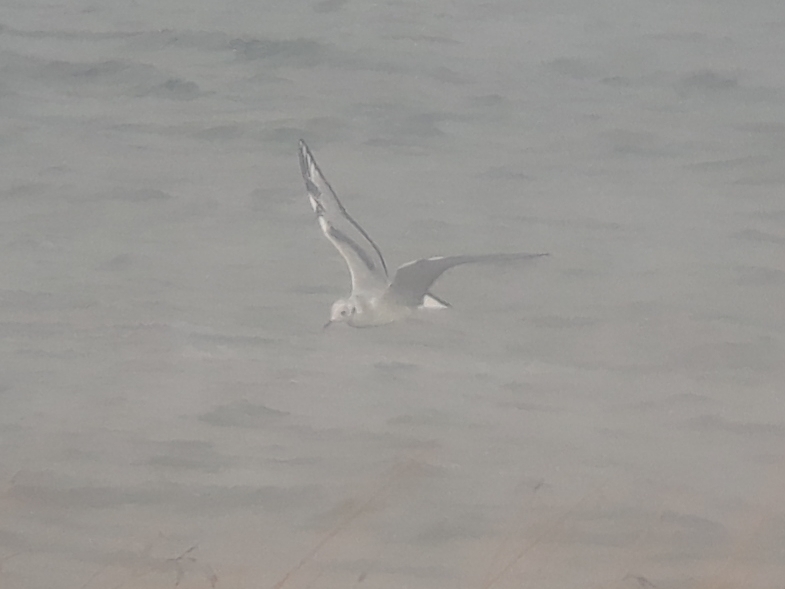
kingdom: Animalia
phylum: Chordata
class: Aves
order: Charadriiformes
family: Laridae
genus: Chroicocephalus
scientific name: Chroicocephalus philadelphia
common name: Bonaparte's gull
